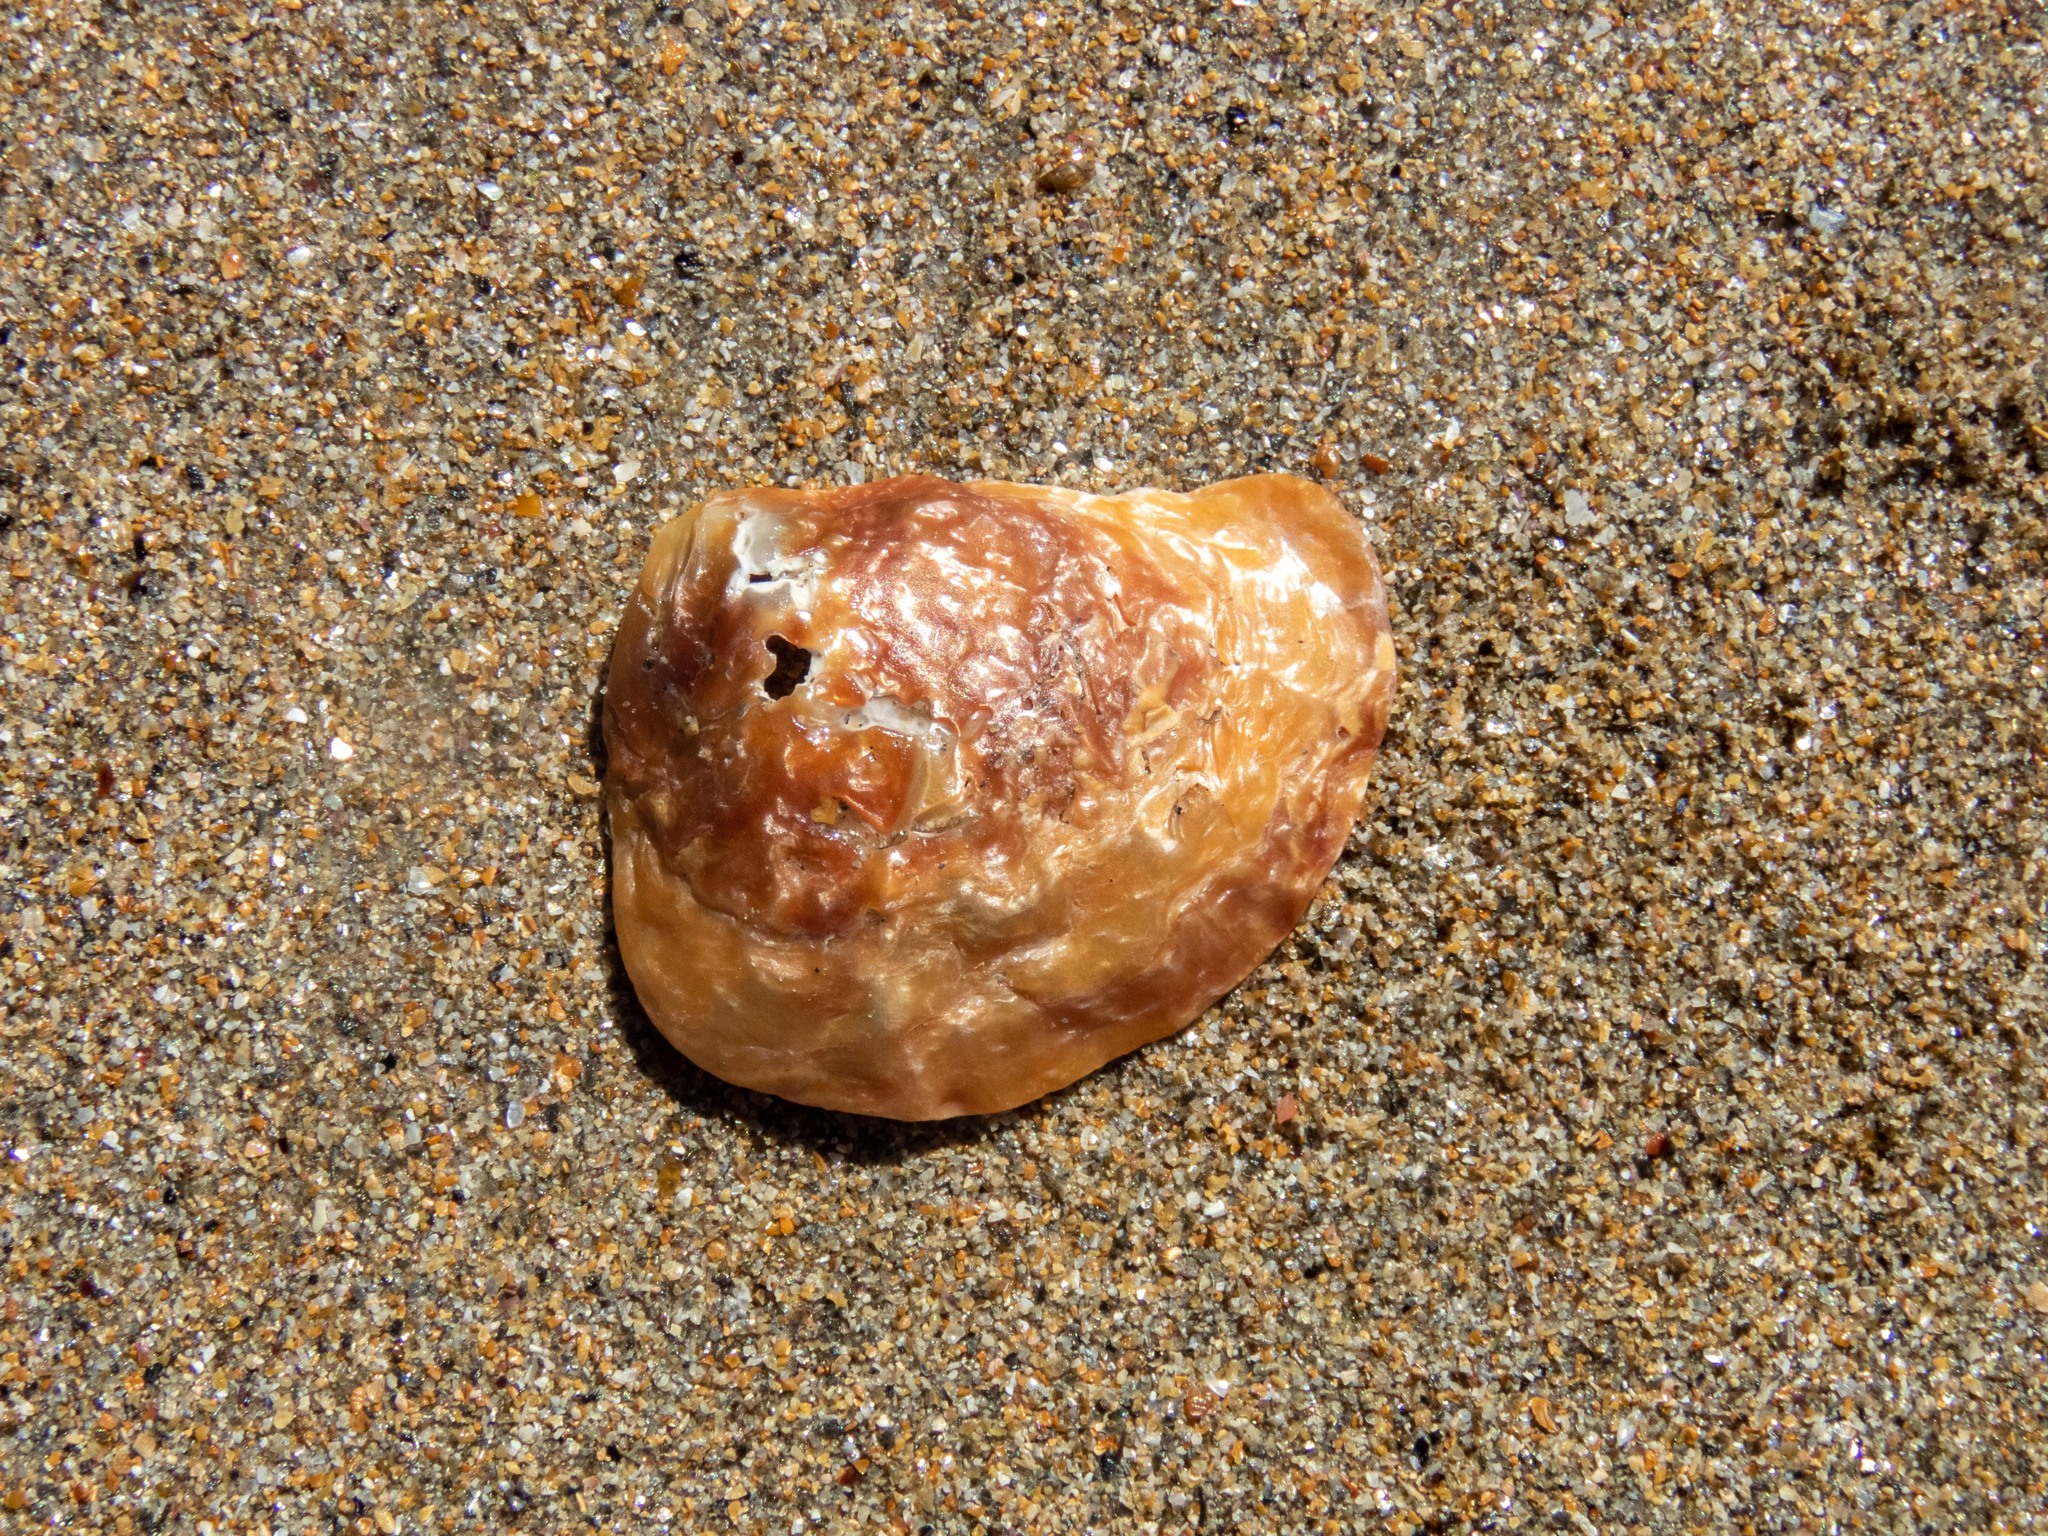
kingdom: Animalia
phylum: Mollusca
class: Bivalvia
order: Pectinida
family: Anomiidae
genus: Anomia
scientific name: Anomia ephippium
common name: Saddle oyster
